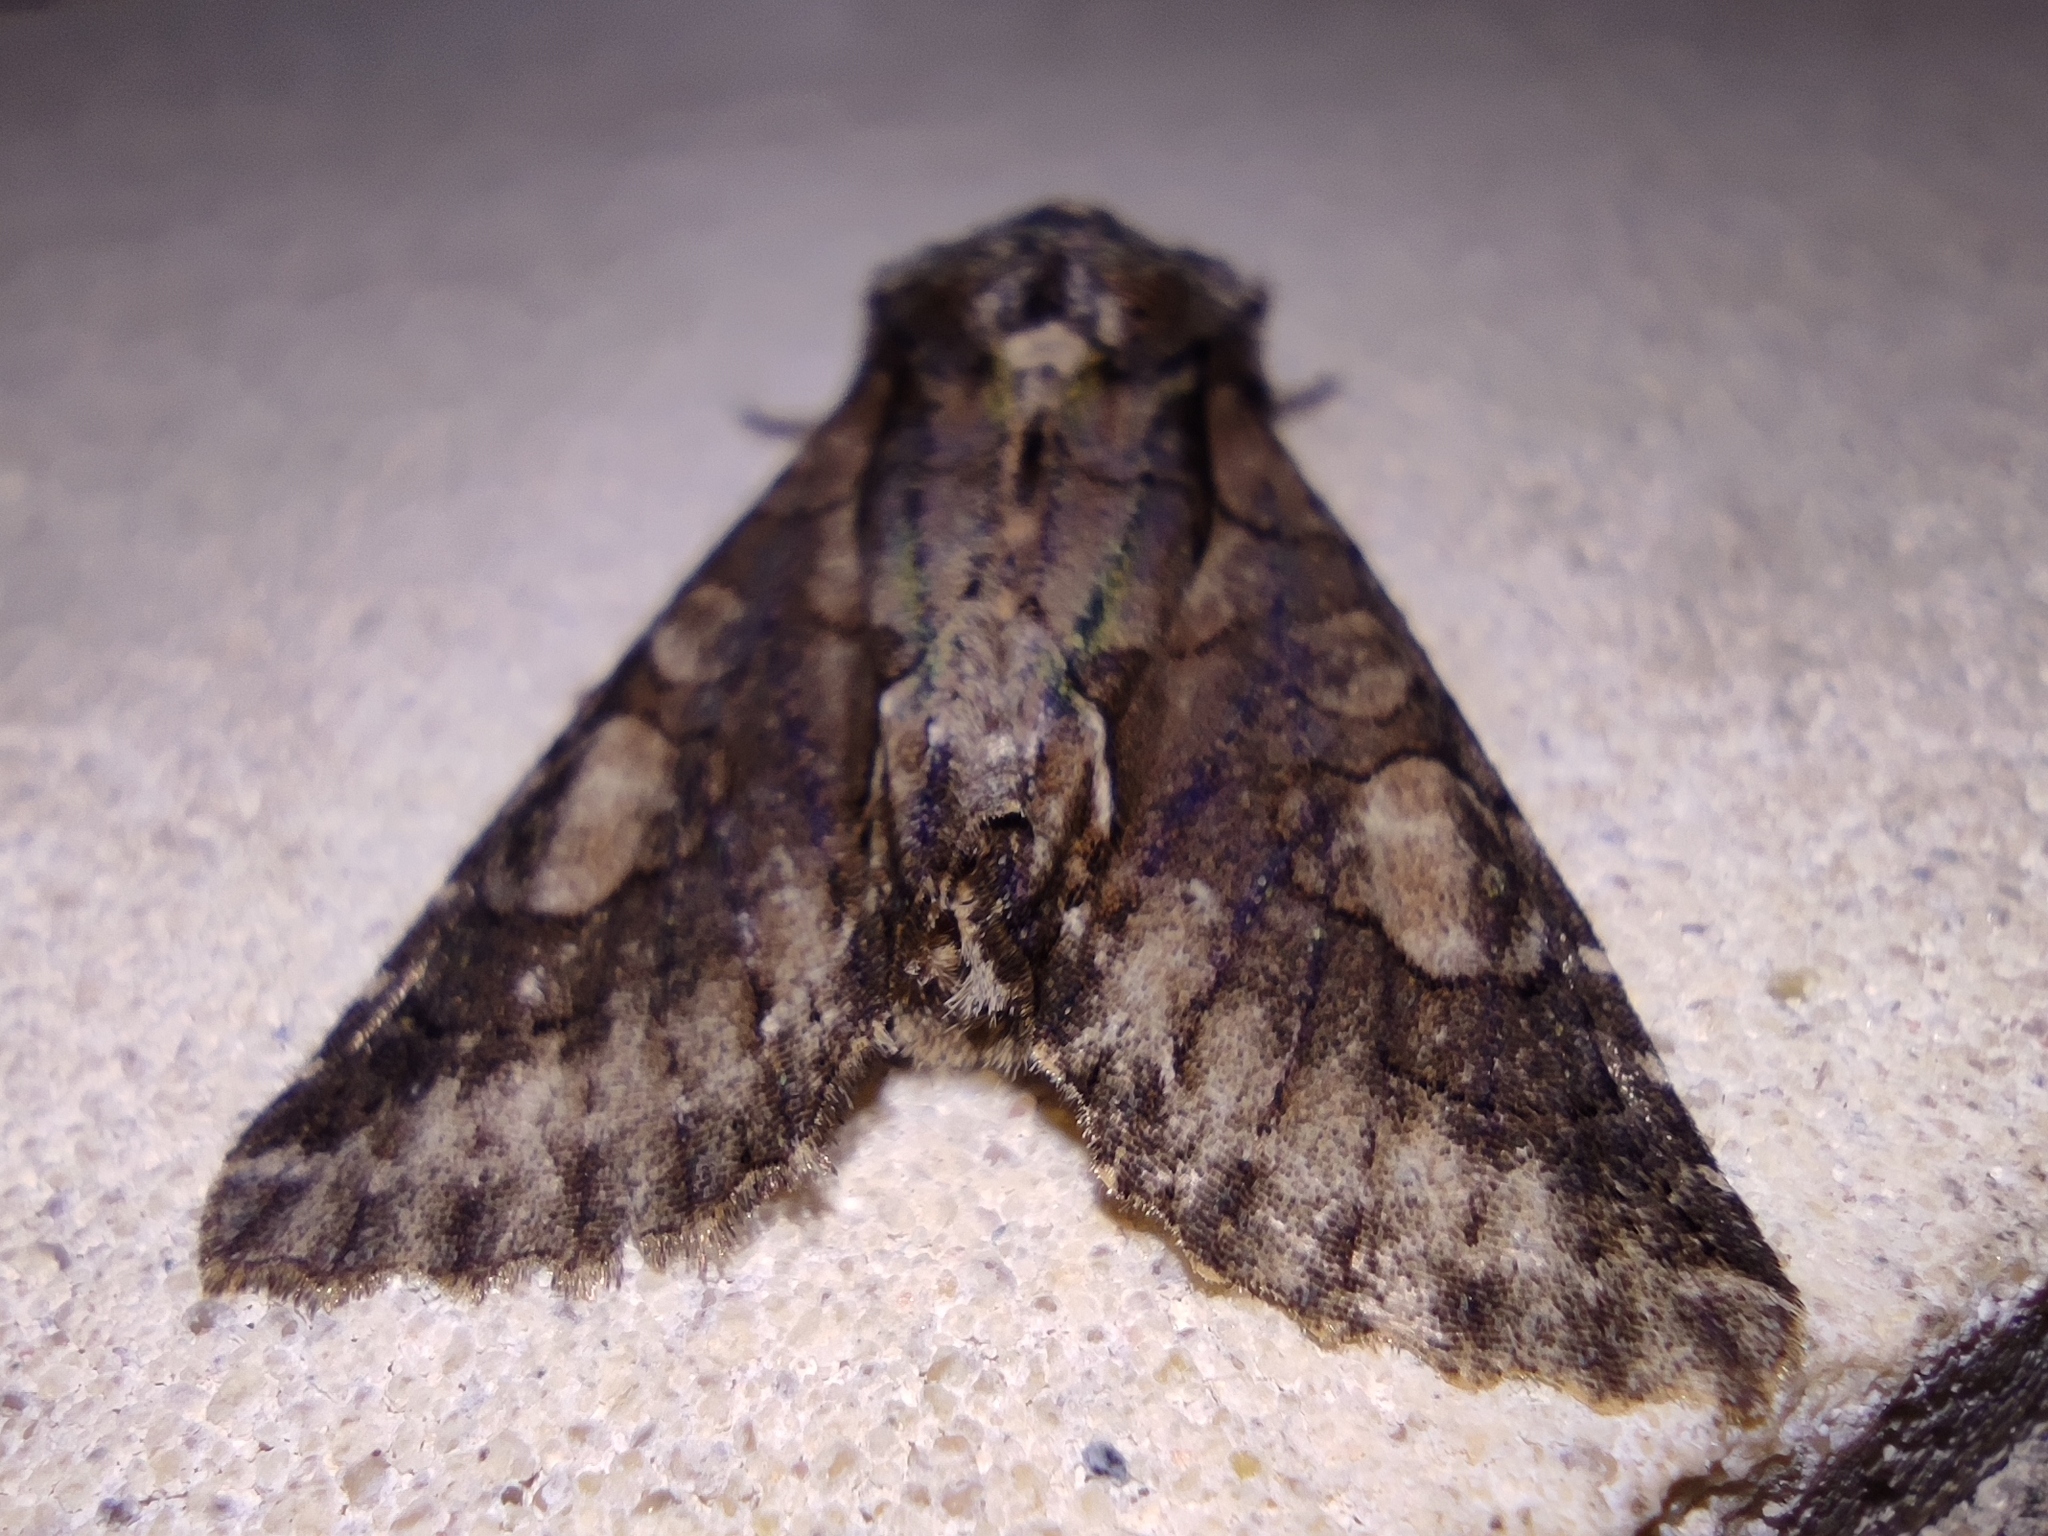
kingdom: Animalia
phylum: Arthropoda
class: Insecta
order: Lepidoptera
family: Noctuidae
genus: Allophyes
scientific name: Allophyes oxyacanthae
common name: Green-brindled crescent
